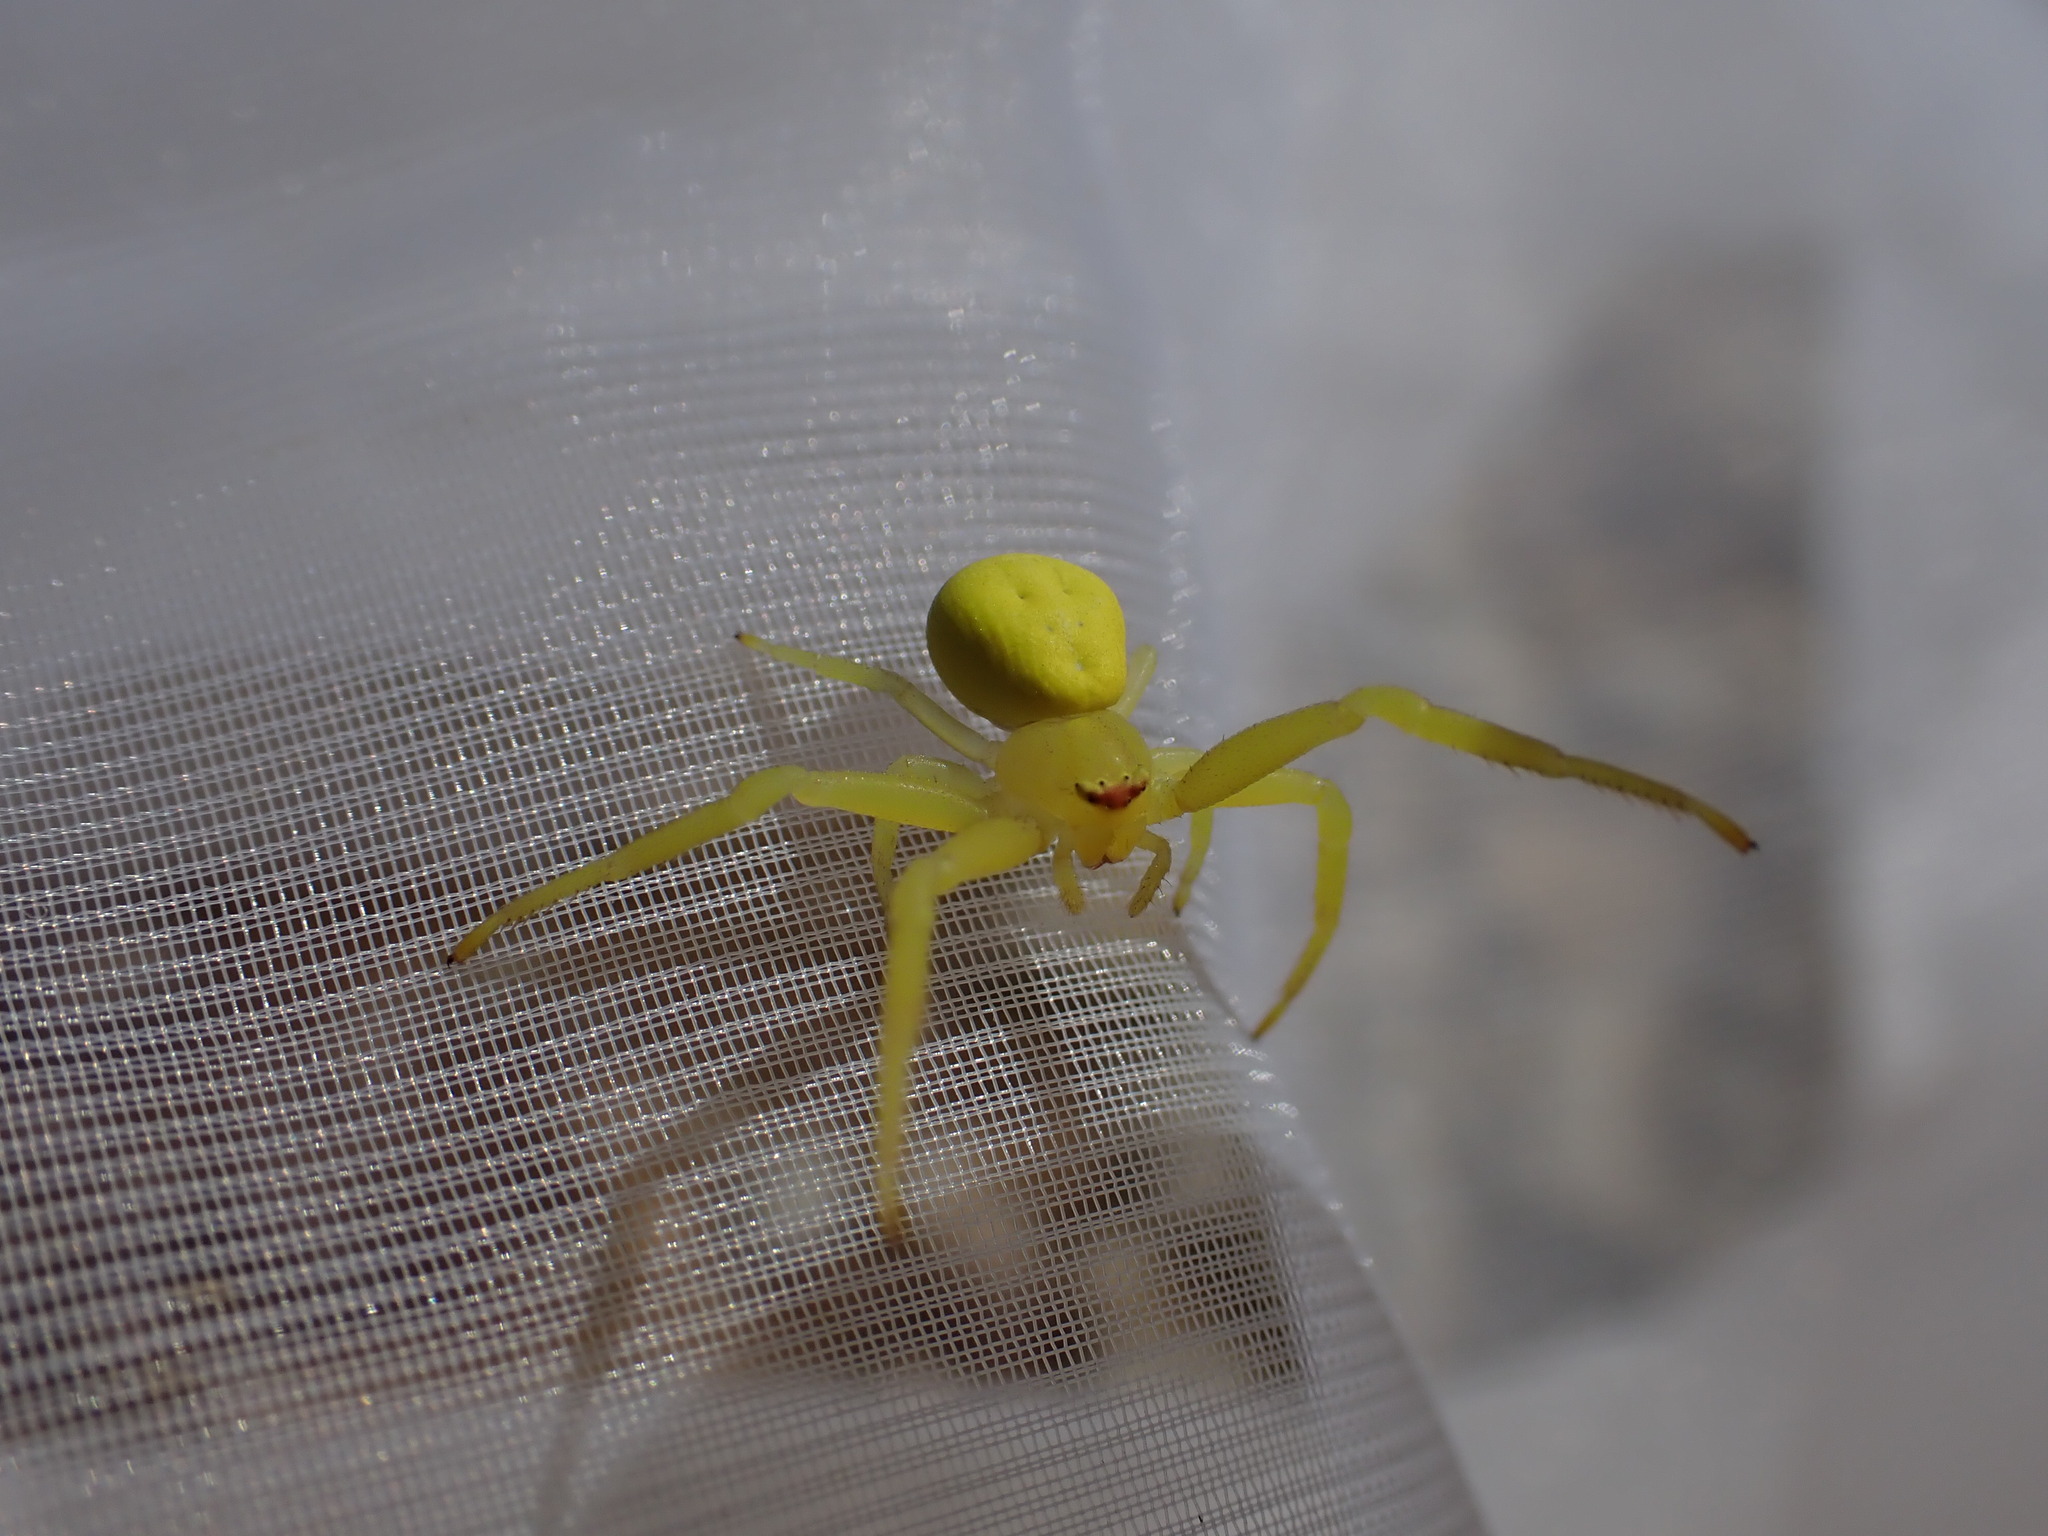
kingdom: Animalia
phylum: Arthropoda
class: Arachnida
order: Araneae
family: Thomisidae
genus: Misumena
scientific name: Misumena vatia
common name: Goldenrod crab spider
